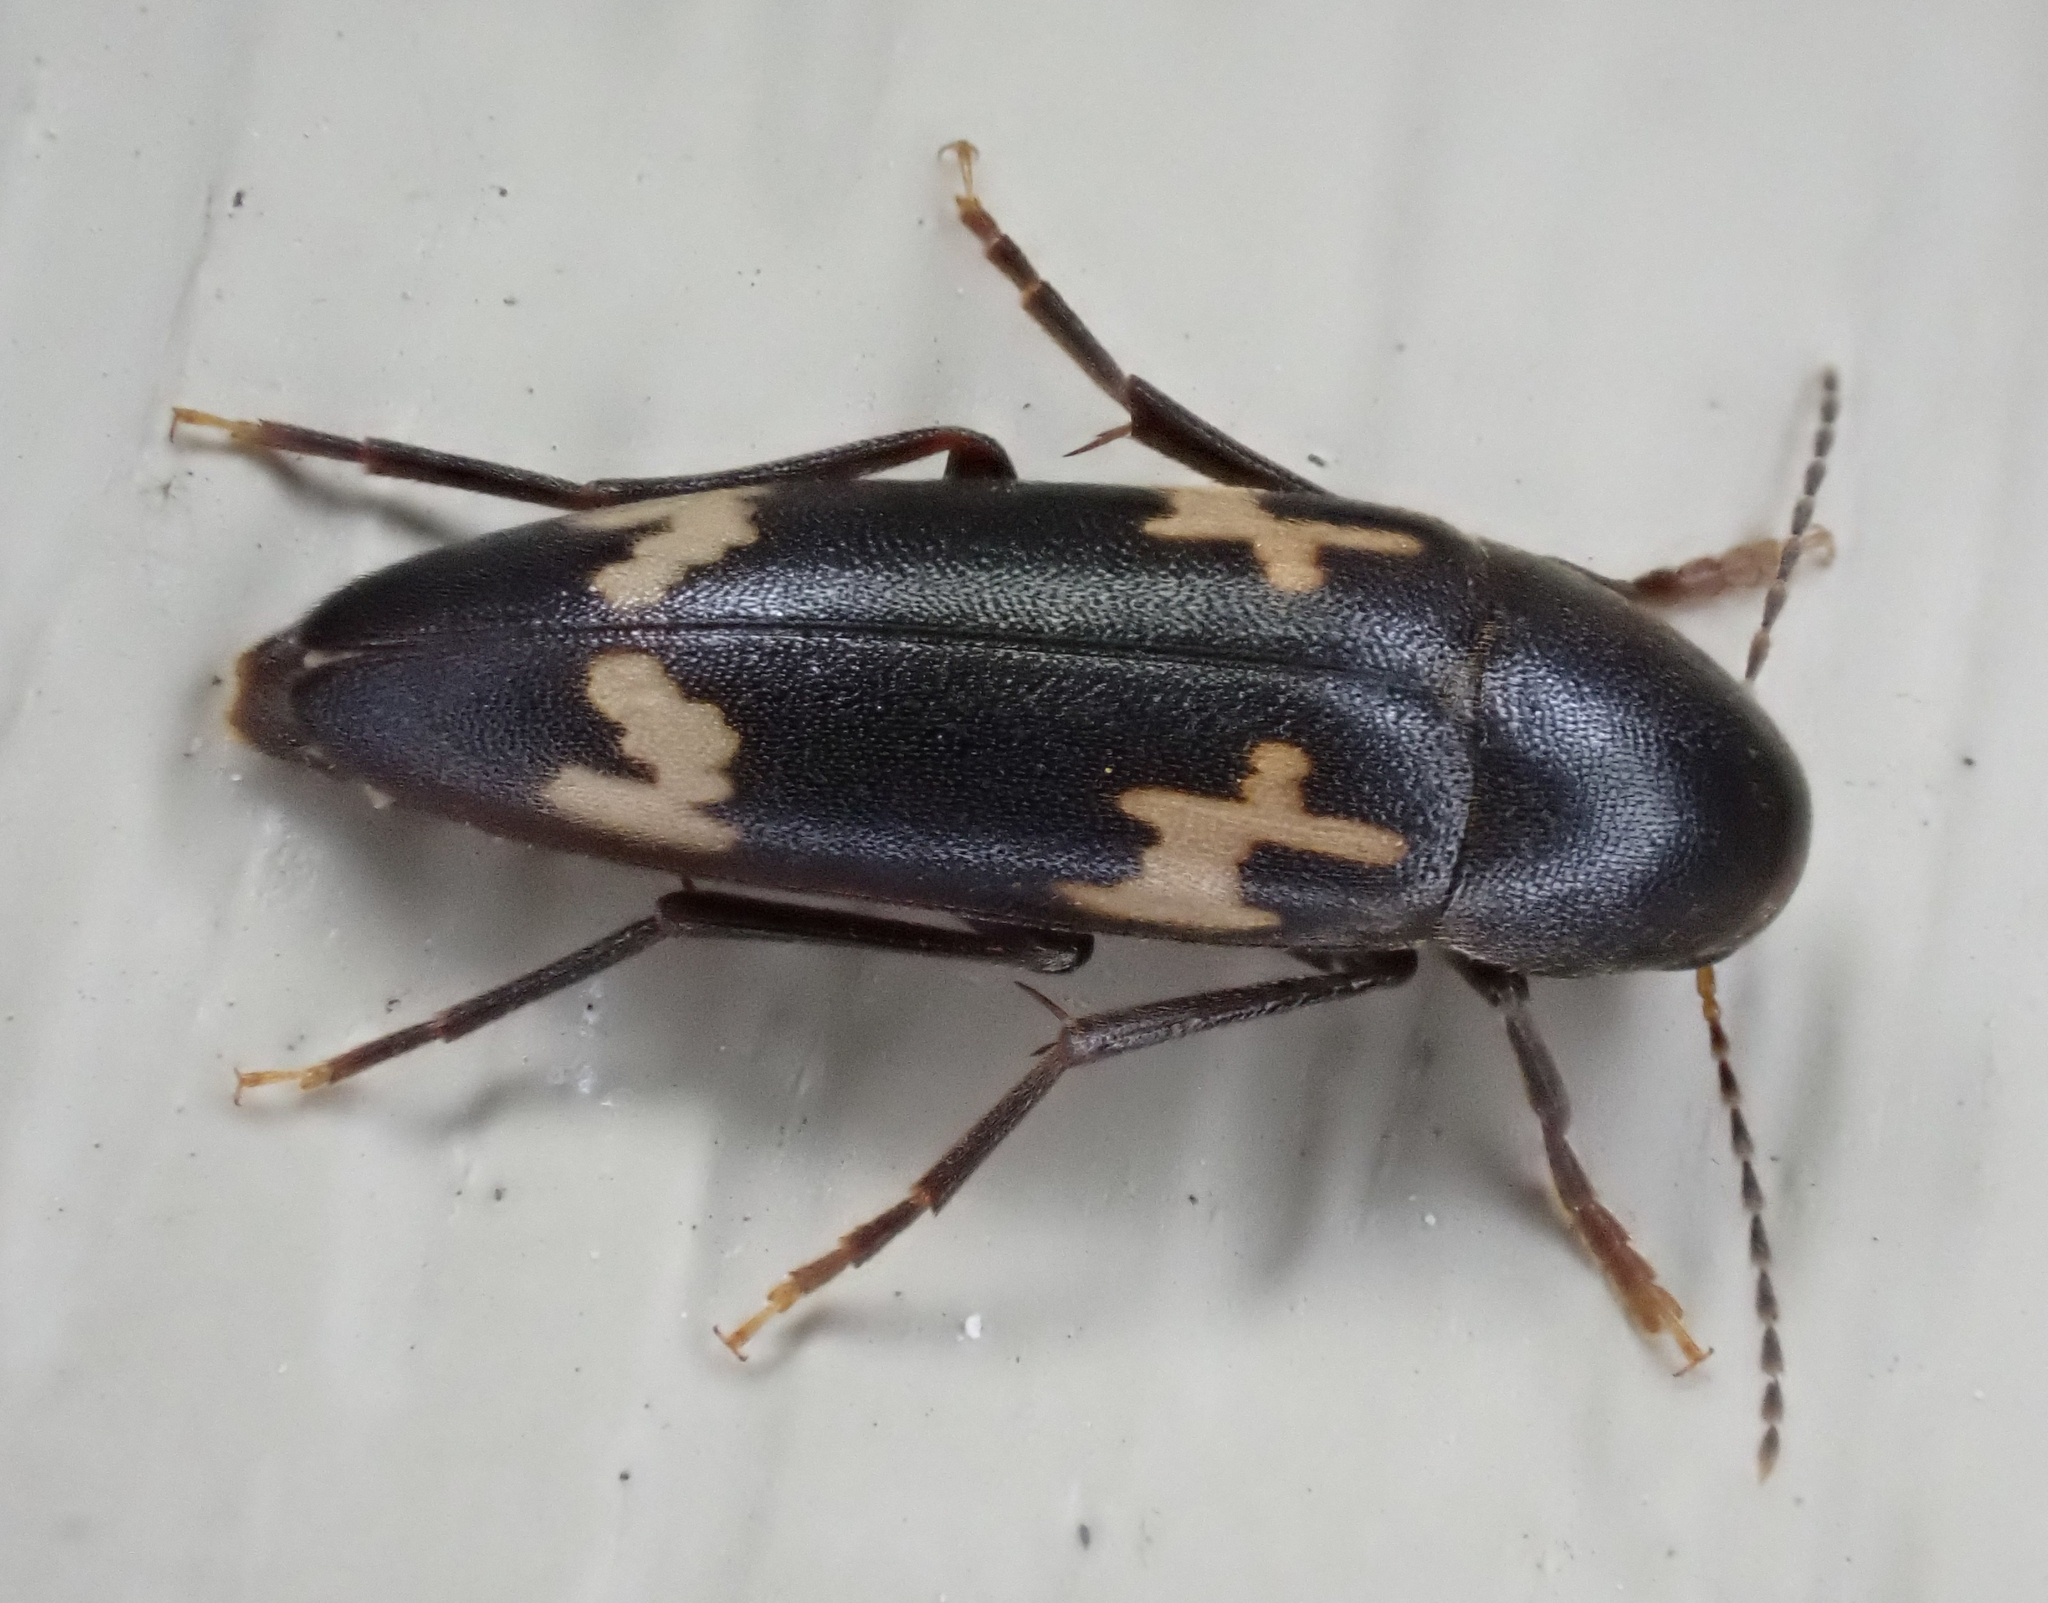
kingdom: Animalia
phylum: Arthropoda
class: Insecta
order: Coleoptera
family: Melandryidae
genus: Dircaea
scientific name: Dircaea liturata
